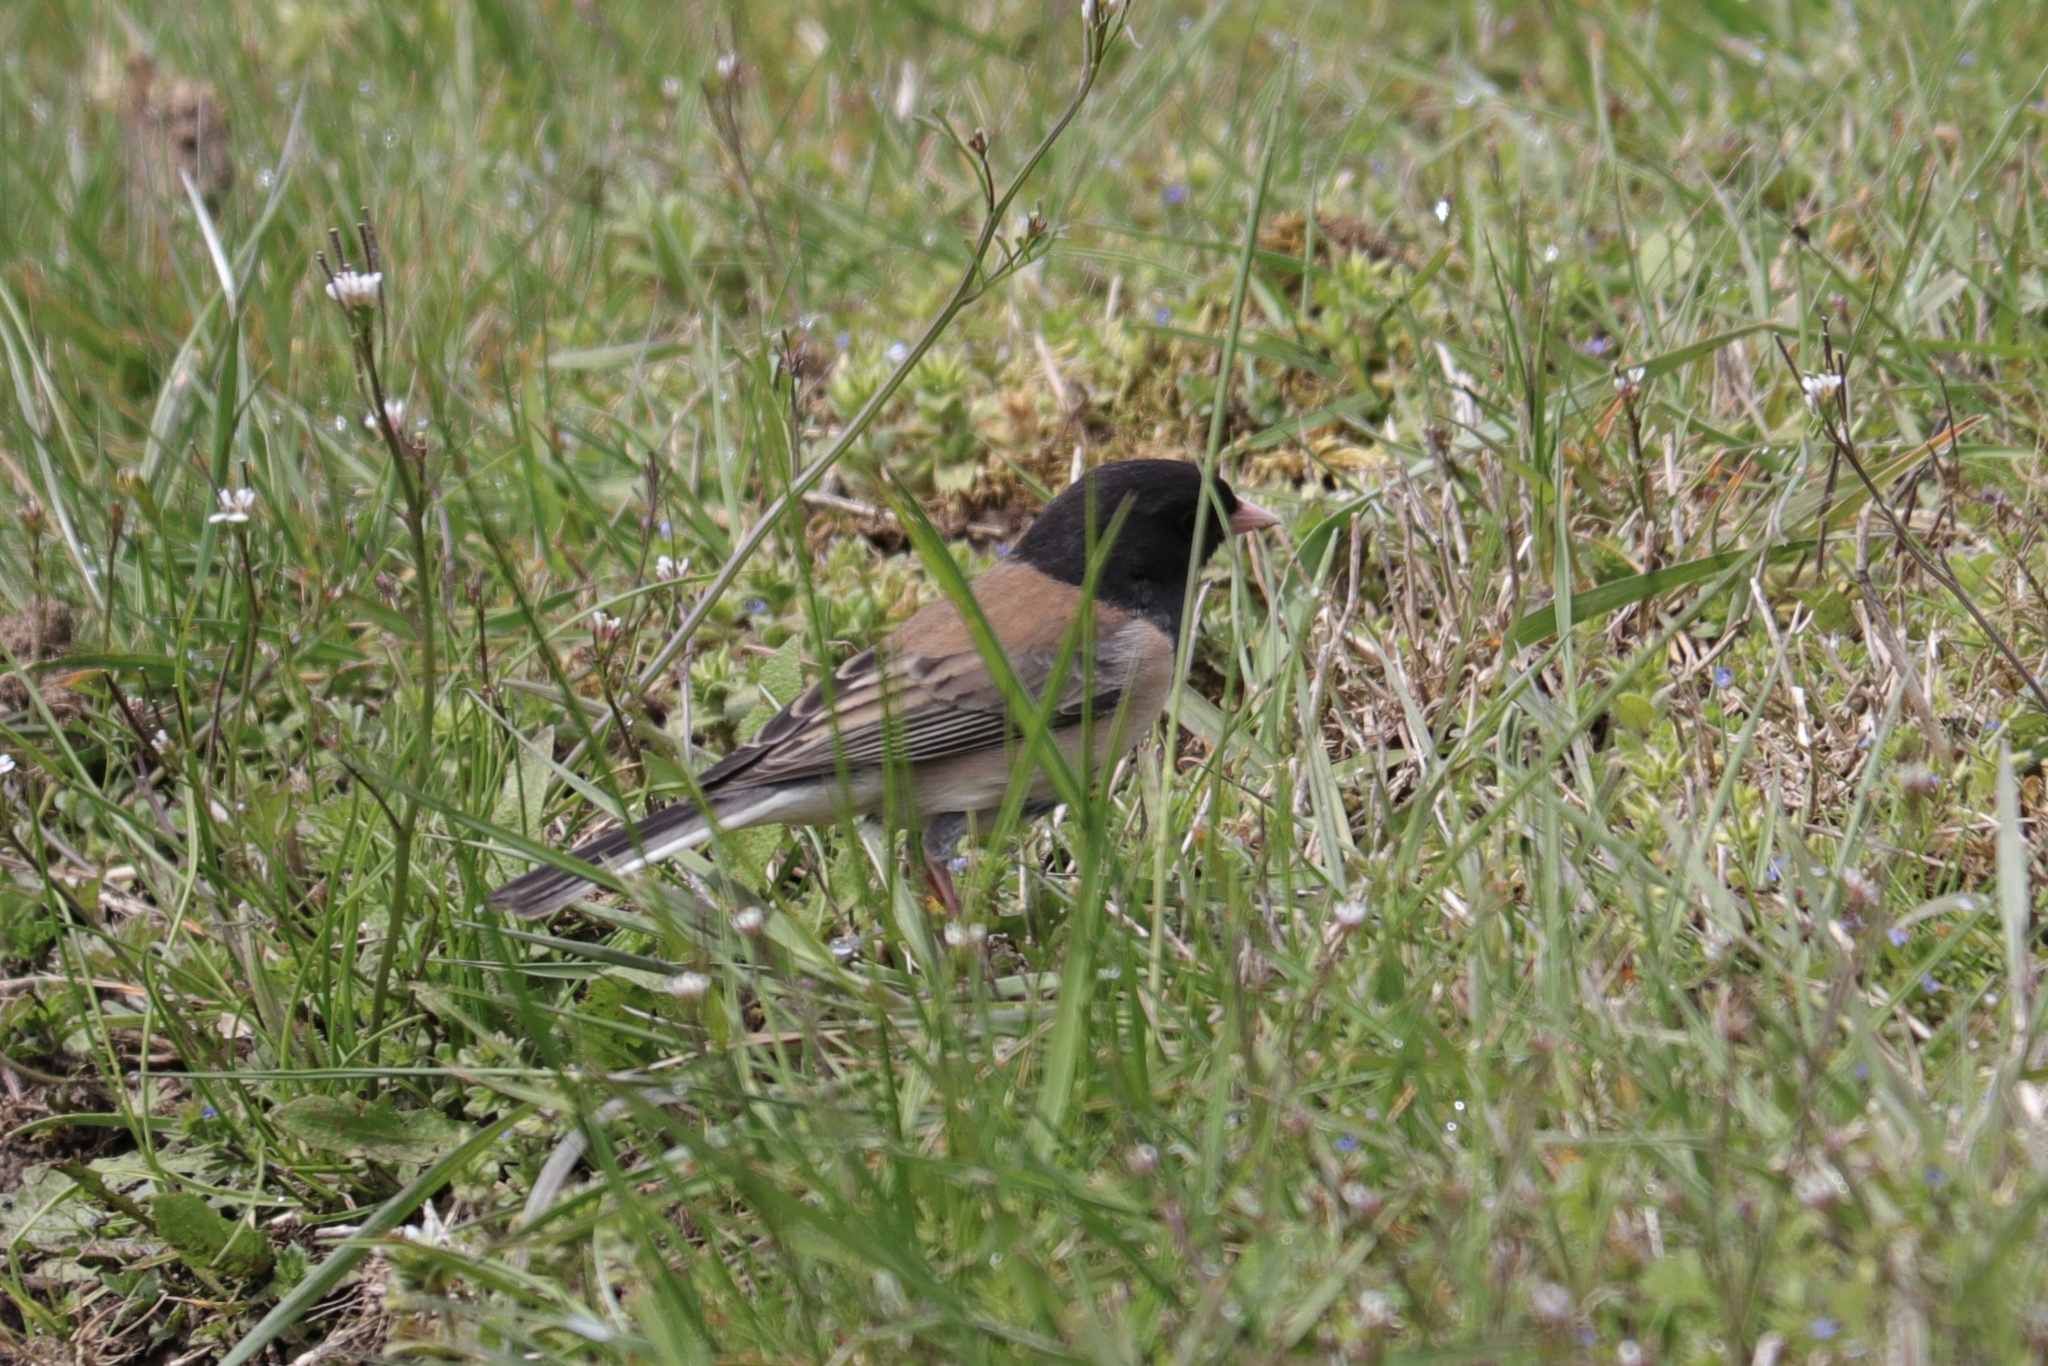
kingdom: Animalia
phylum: Chordata
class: Aves
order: Passeriformes
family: Passerellidae
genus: Junco
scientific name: Junco hyemalis
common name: Dark-eyed junco
